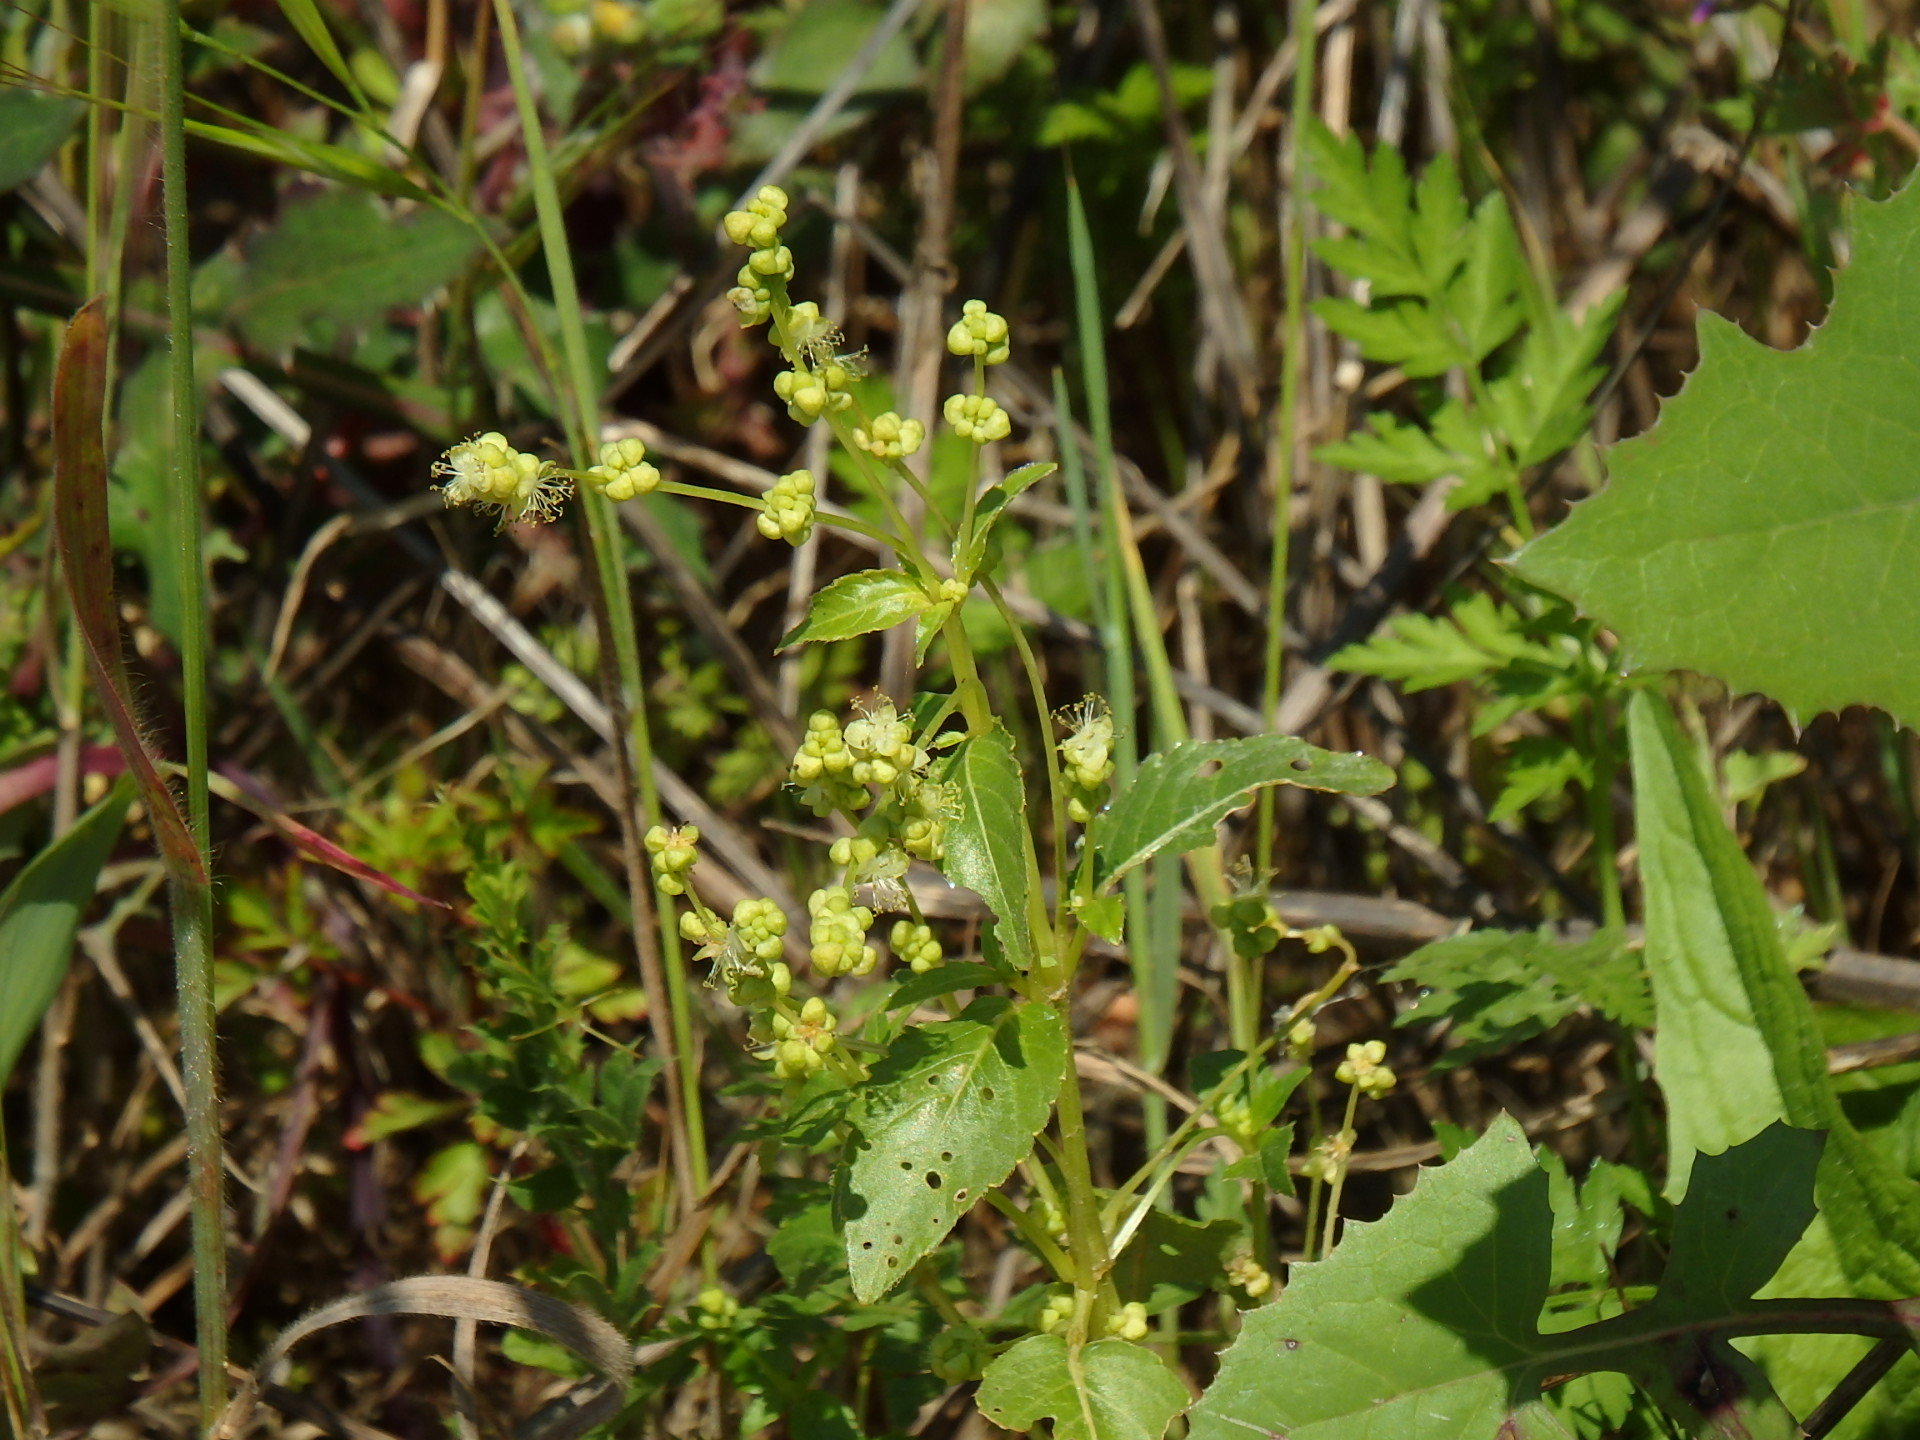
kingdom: Plantae
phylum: Tracheophyta
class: Magnoliopsida
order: Malpighiales
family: Euphorbiaceae
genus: Mercurialis
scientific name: Mercurialis annua
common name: Annual mercury
